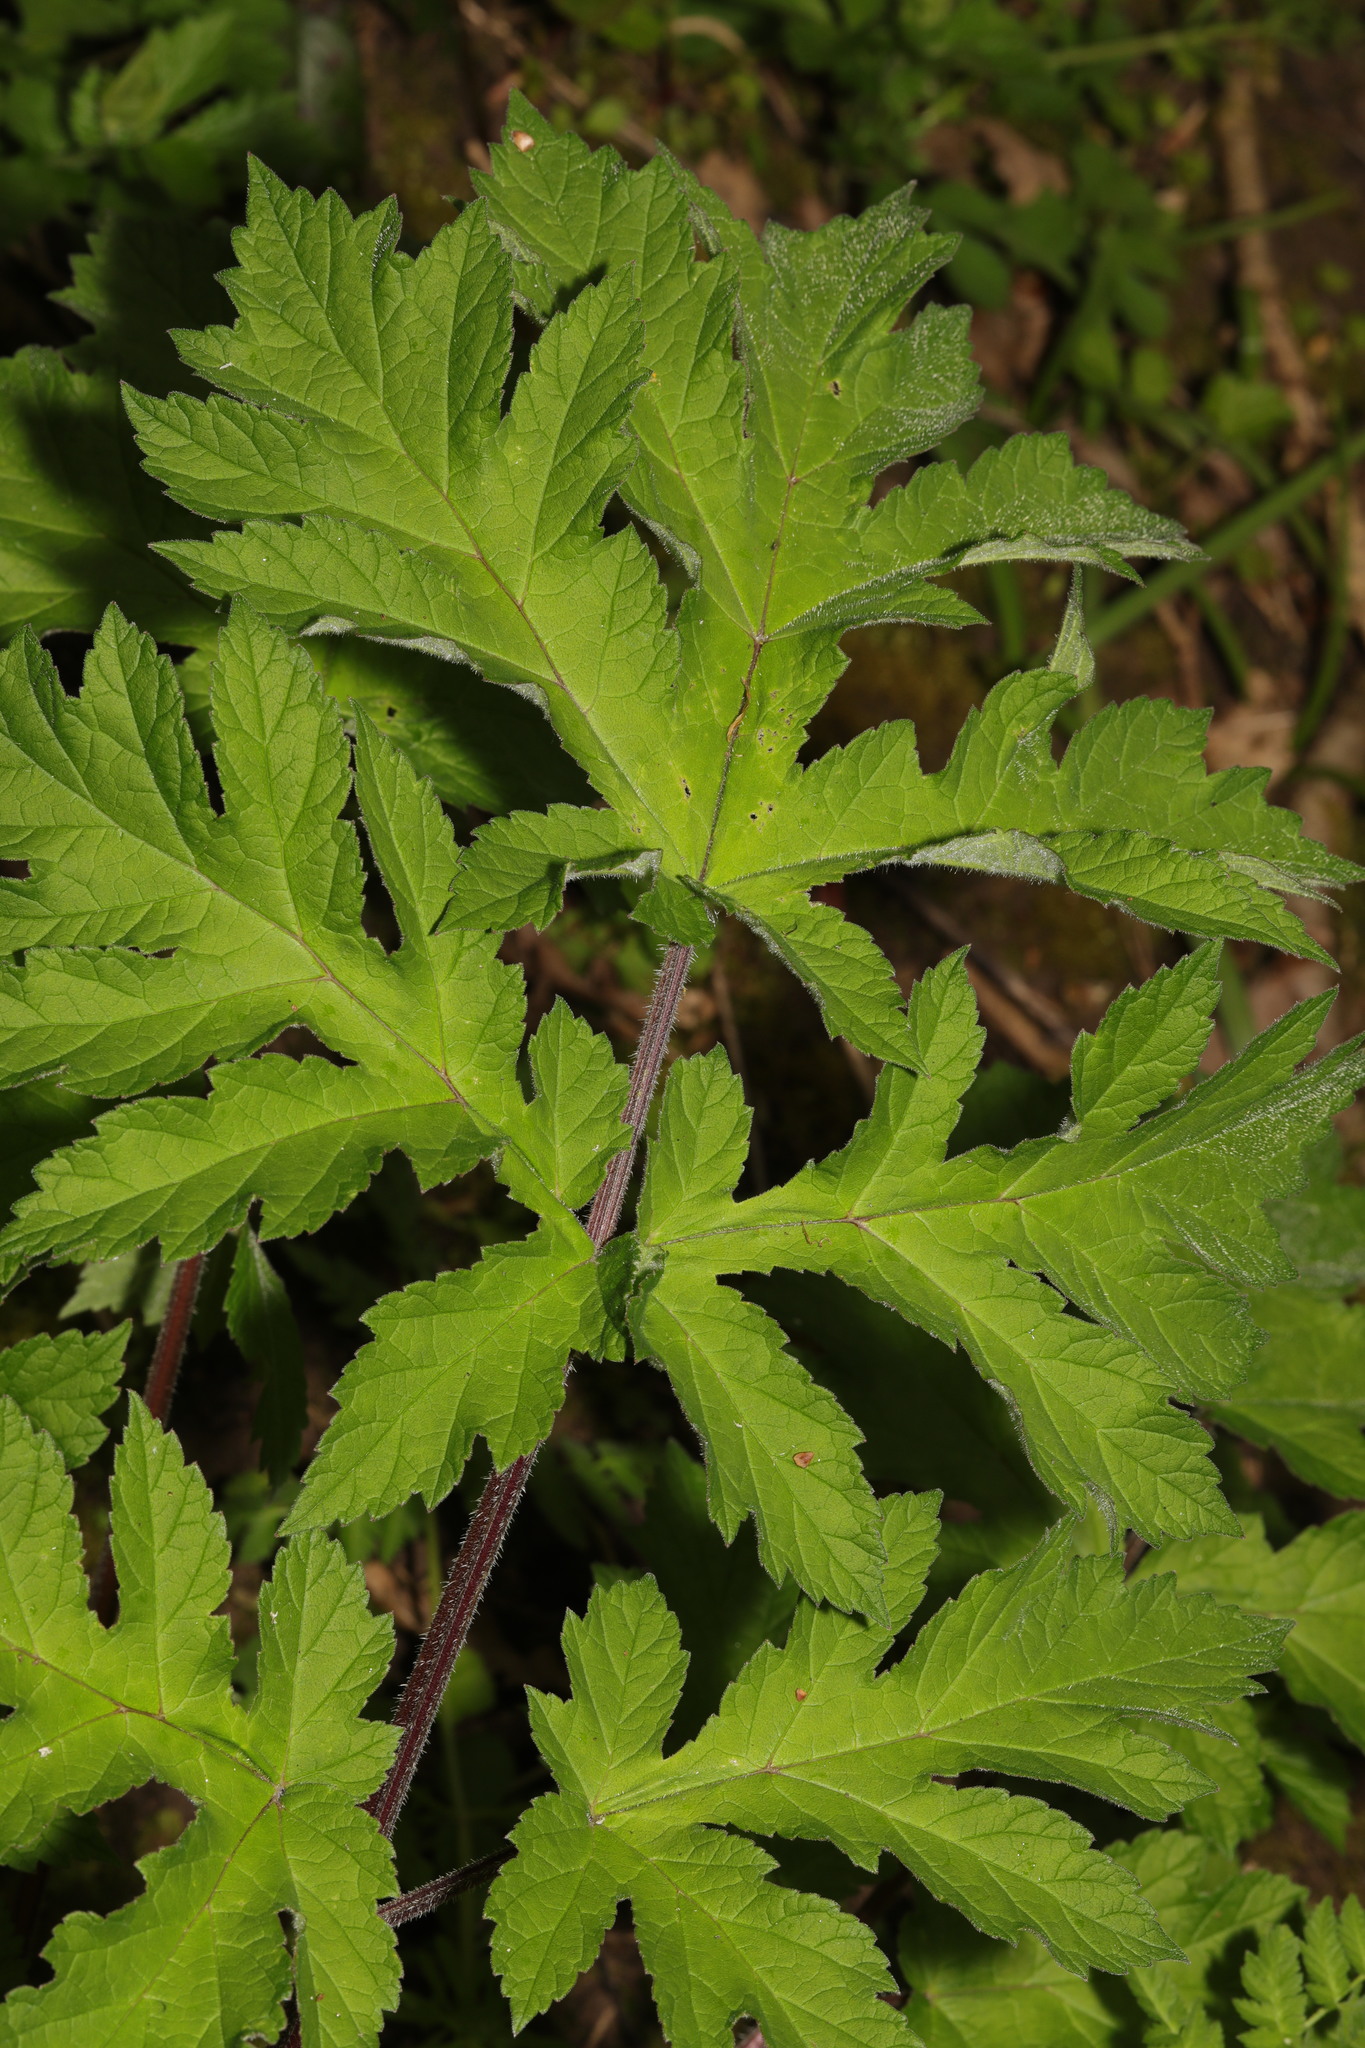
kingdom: Plantae
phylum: Tracheophyta
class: Magnoliopsida
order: Apiales
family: Apiaceae
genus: Heracleum
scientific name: Heracleum sphondylium
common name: Hogweed
